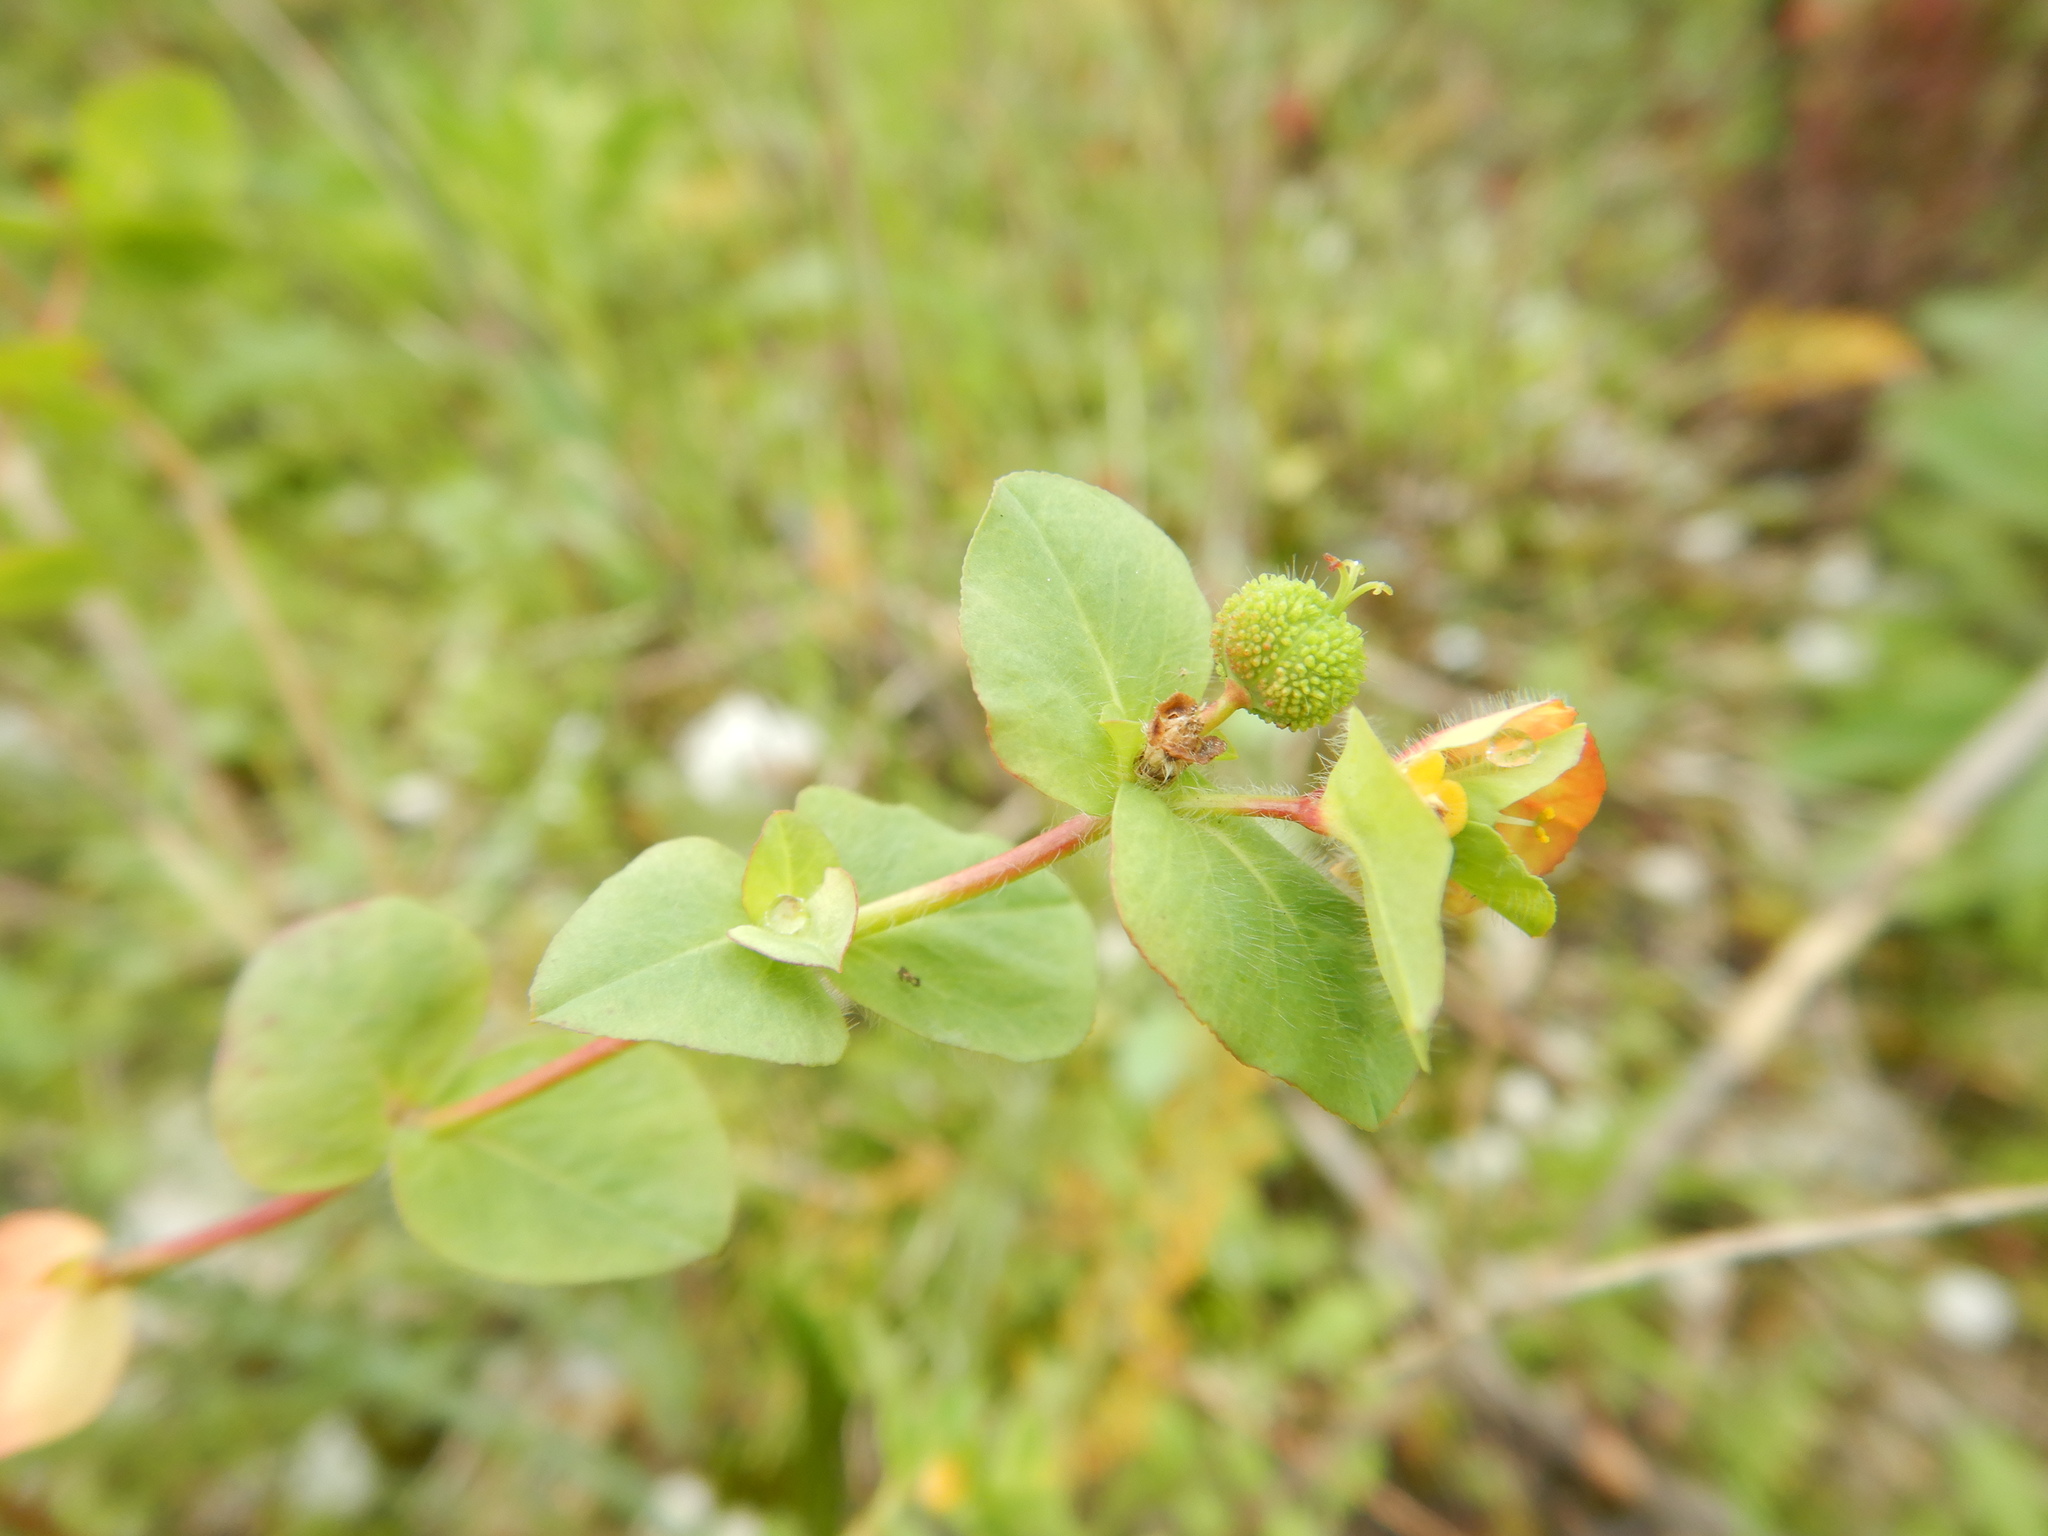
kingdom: Plantae
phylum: Tracheophyta
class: Magnoliopsida
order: Malpighiales
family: Euphorbiaceae
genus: Euphorbia
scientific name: Euphorbia hirsuta
